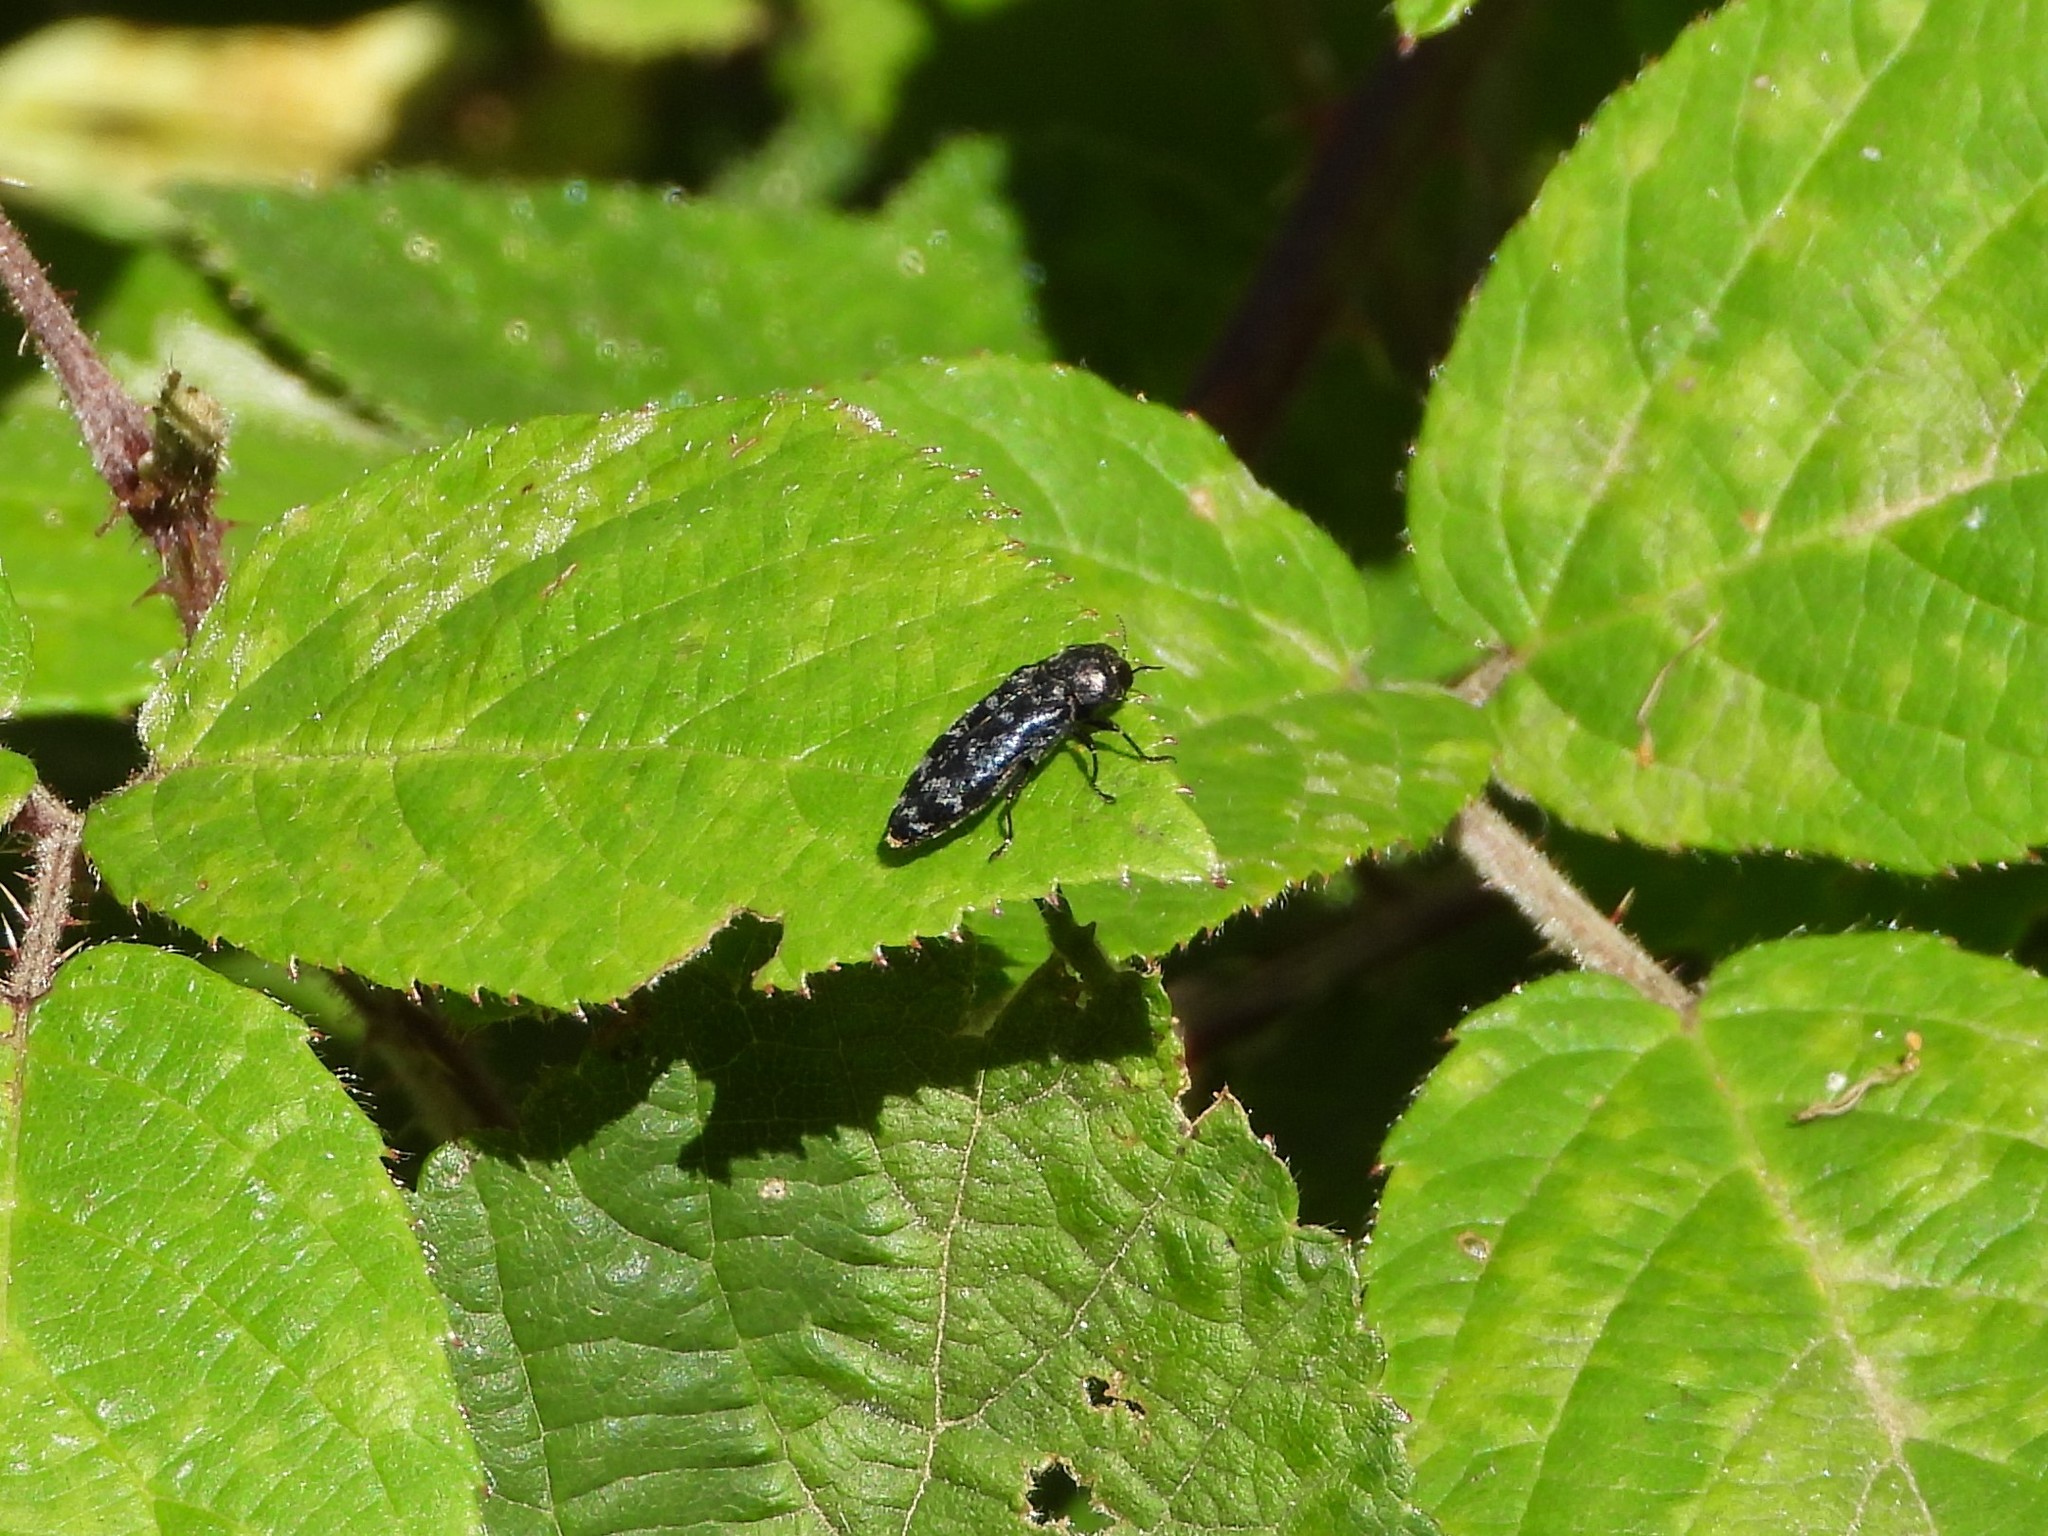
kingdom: Animalia
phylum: Arthropoda
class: Insecta
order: Coleoptera
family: Buprestidae
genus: Coraebus
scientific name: Coraebus rubi
